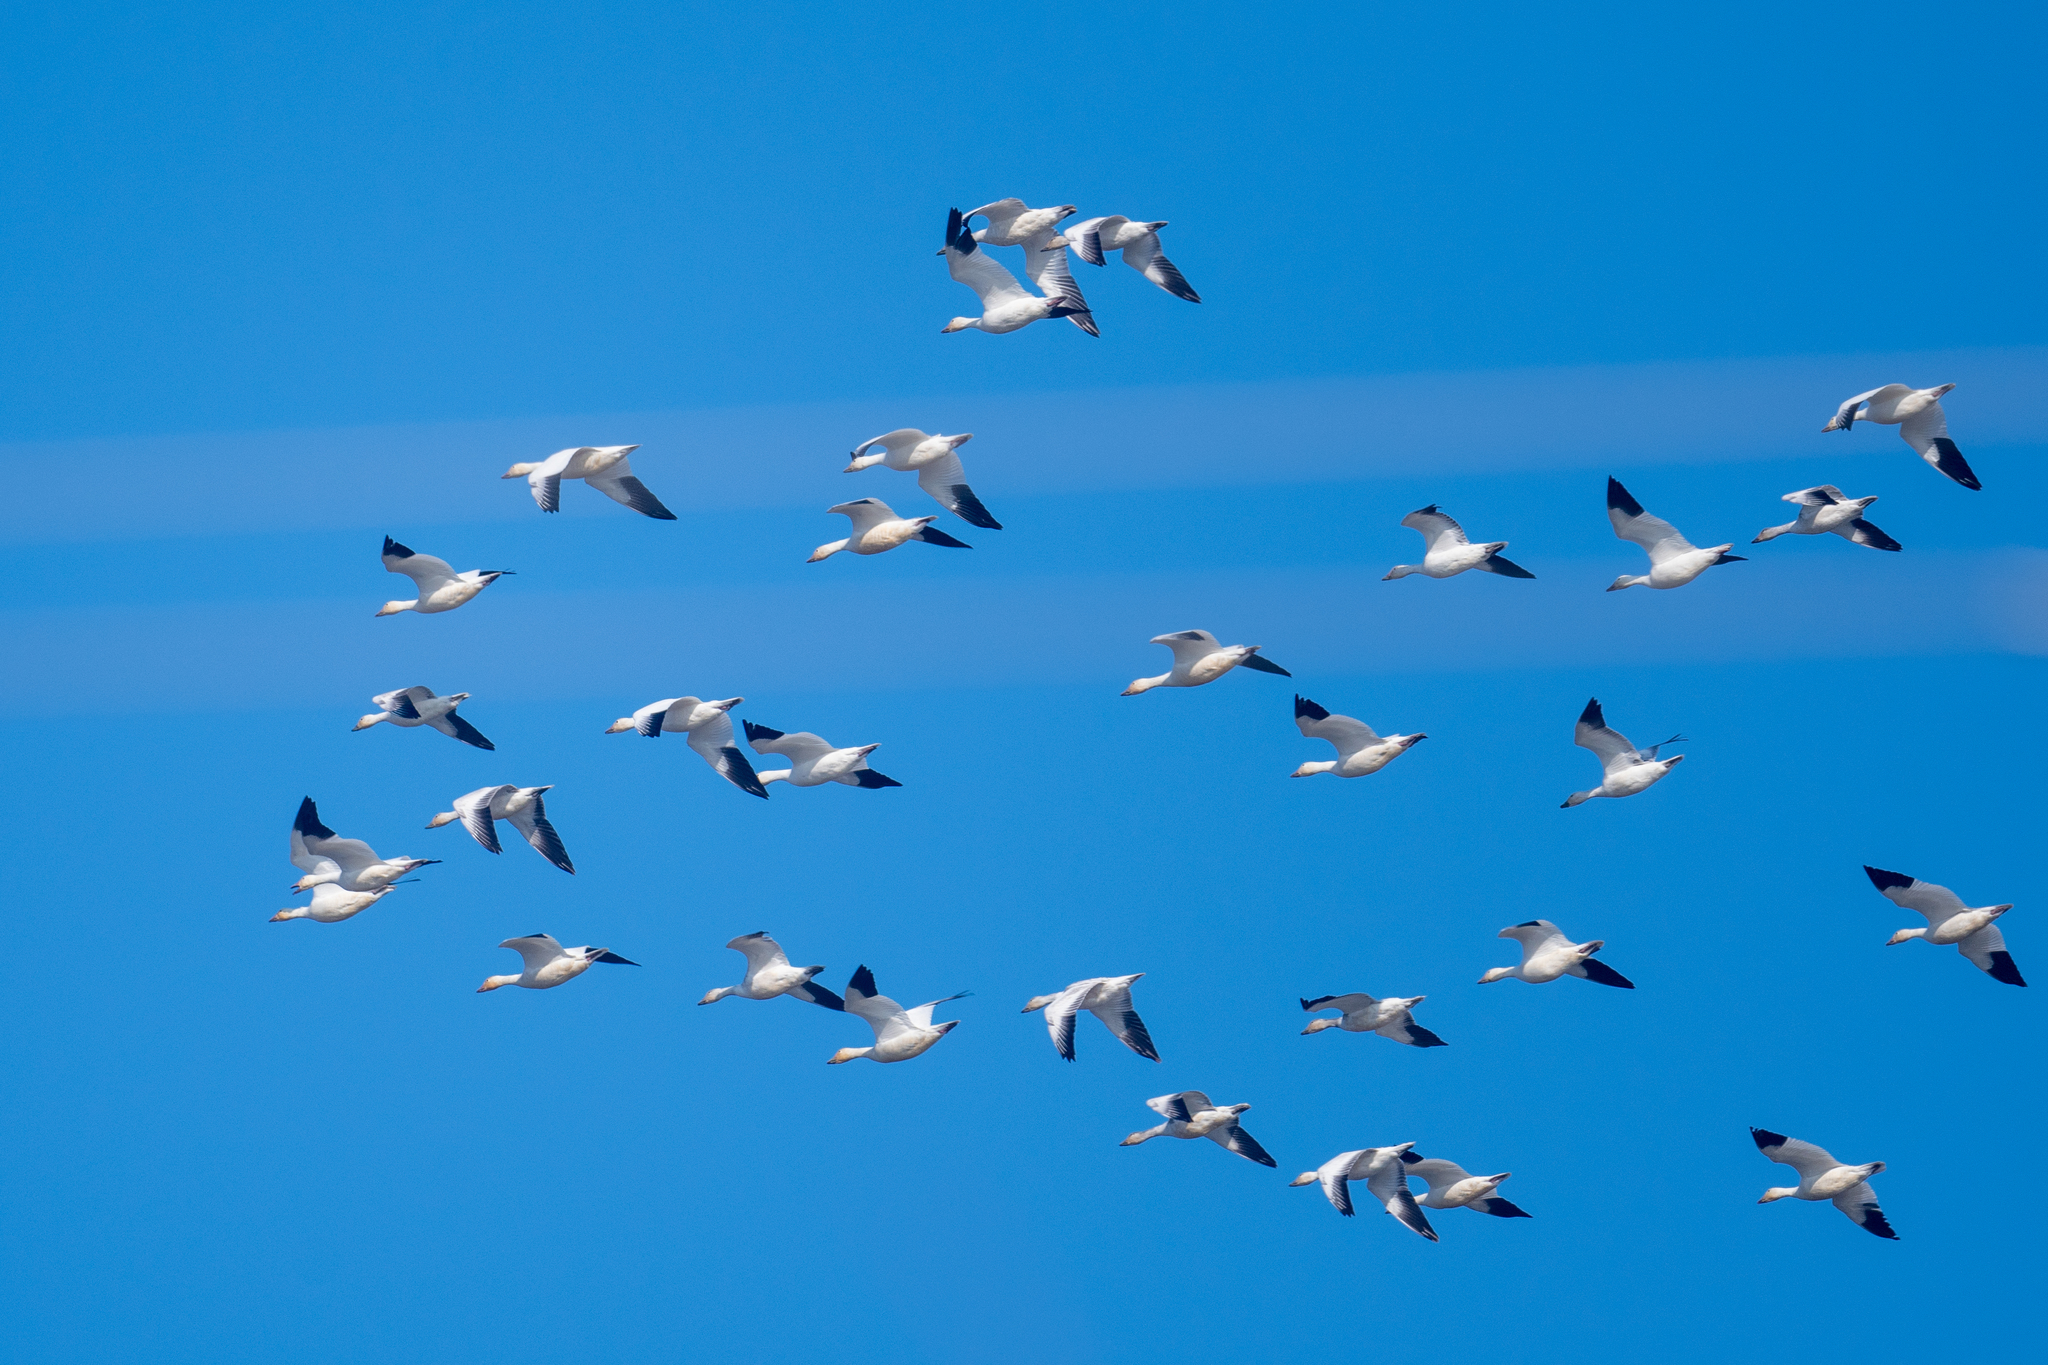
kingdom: Animalia
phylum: Chordata
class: Aves
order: Anseriformes
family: Anatidae
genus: Anser
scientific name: Anser caerulescens
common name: Snow goose
